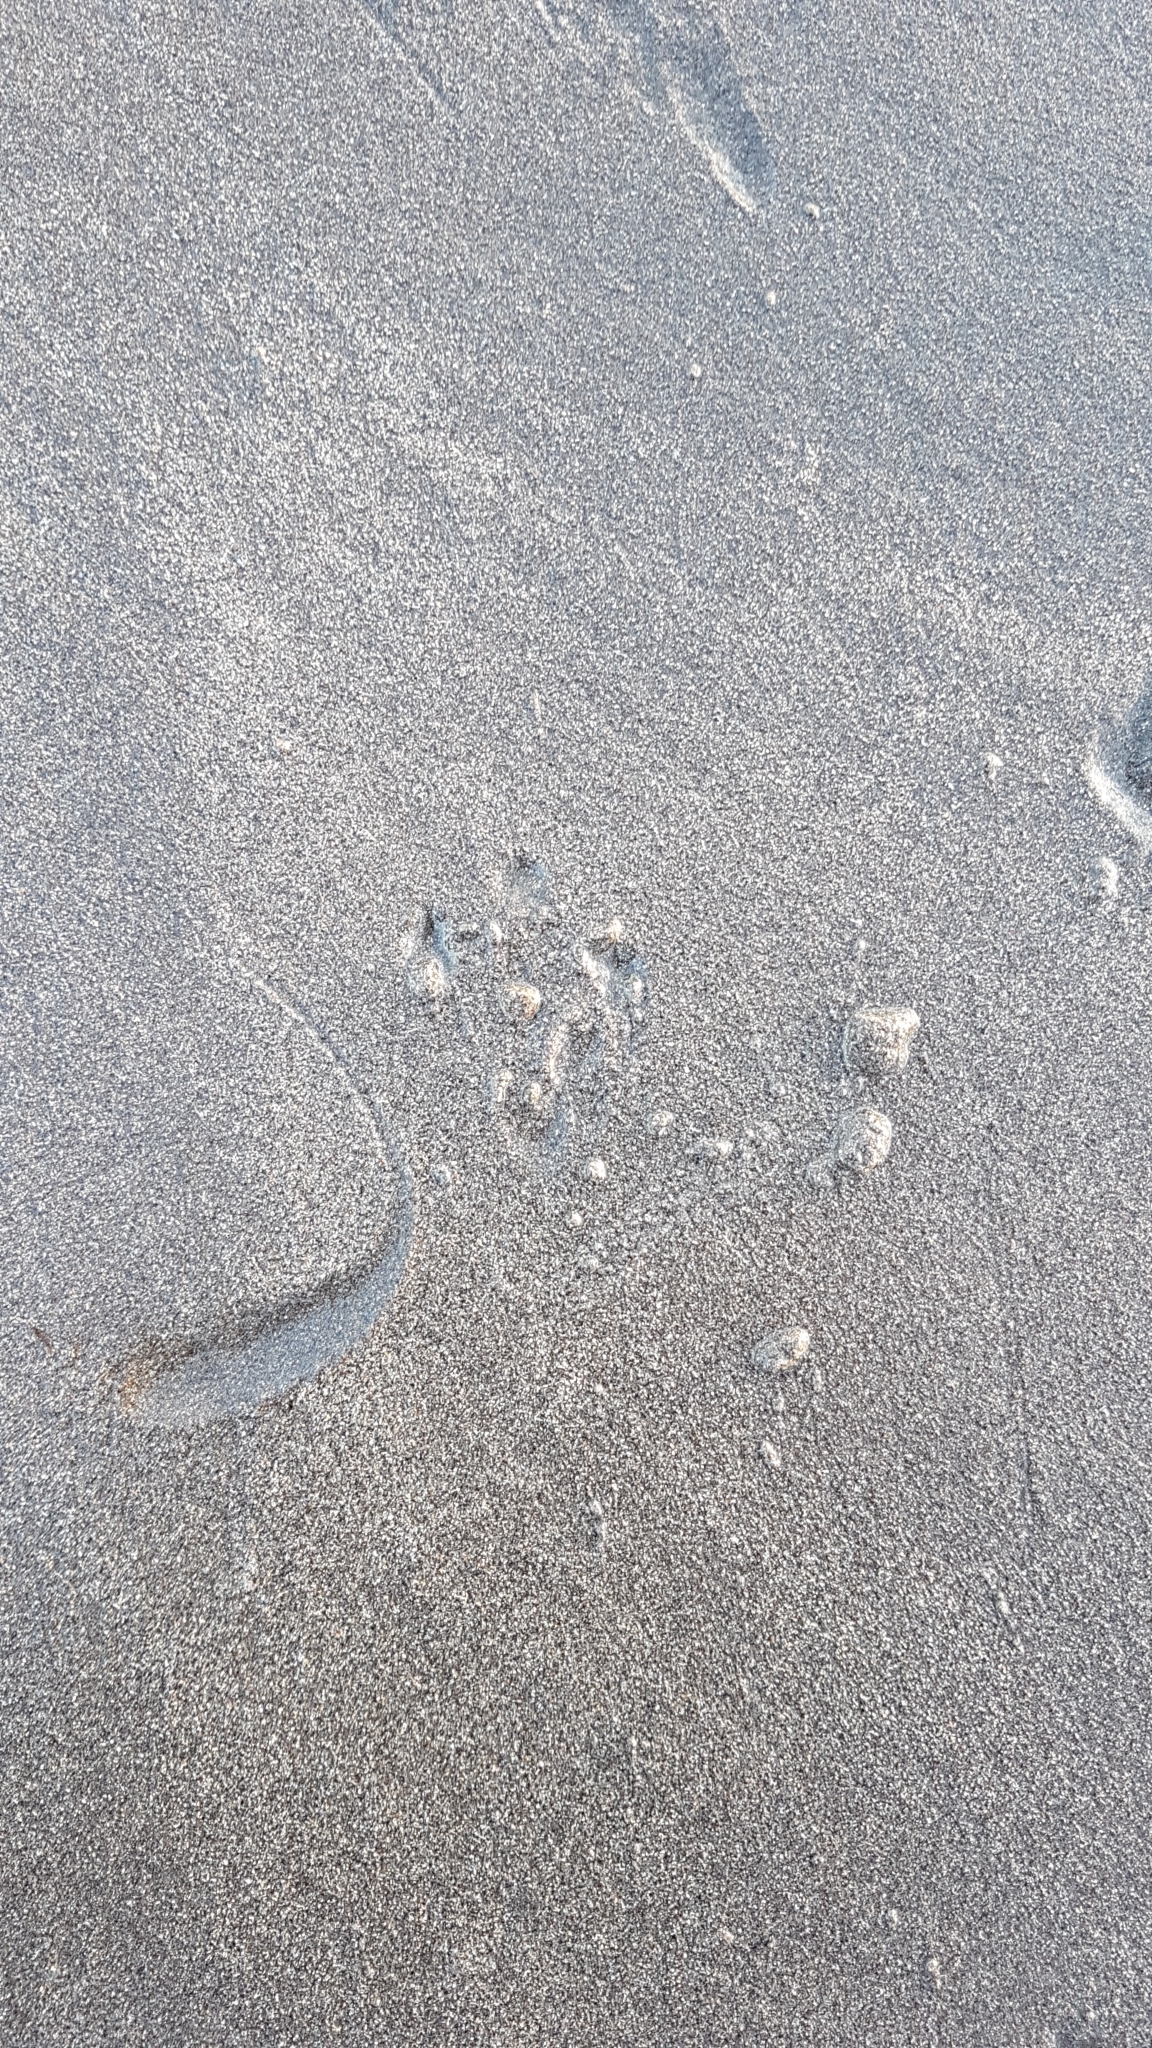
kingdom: Animalia
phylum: Chordata
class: Aves
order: Sphenisciformes
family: Spheniscidae
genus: Eudyptula
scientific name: Eudyptula minor
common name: Little penguin
